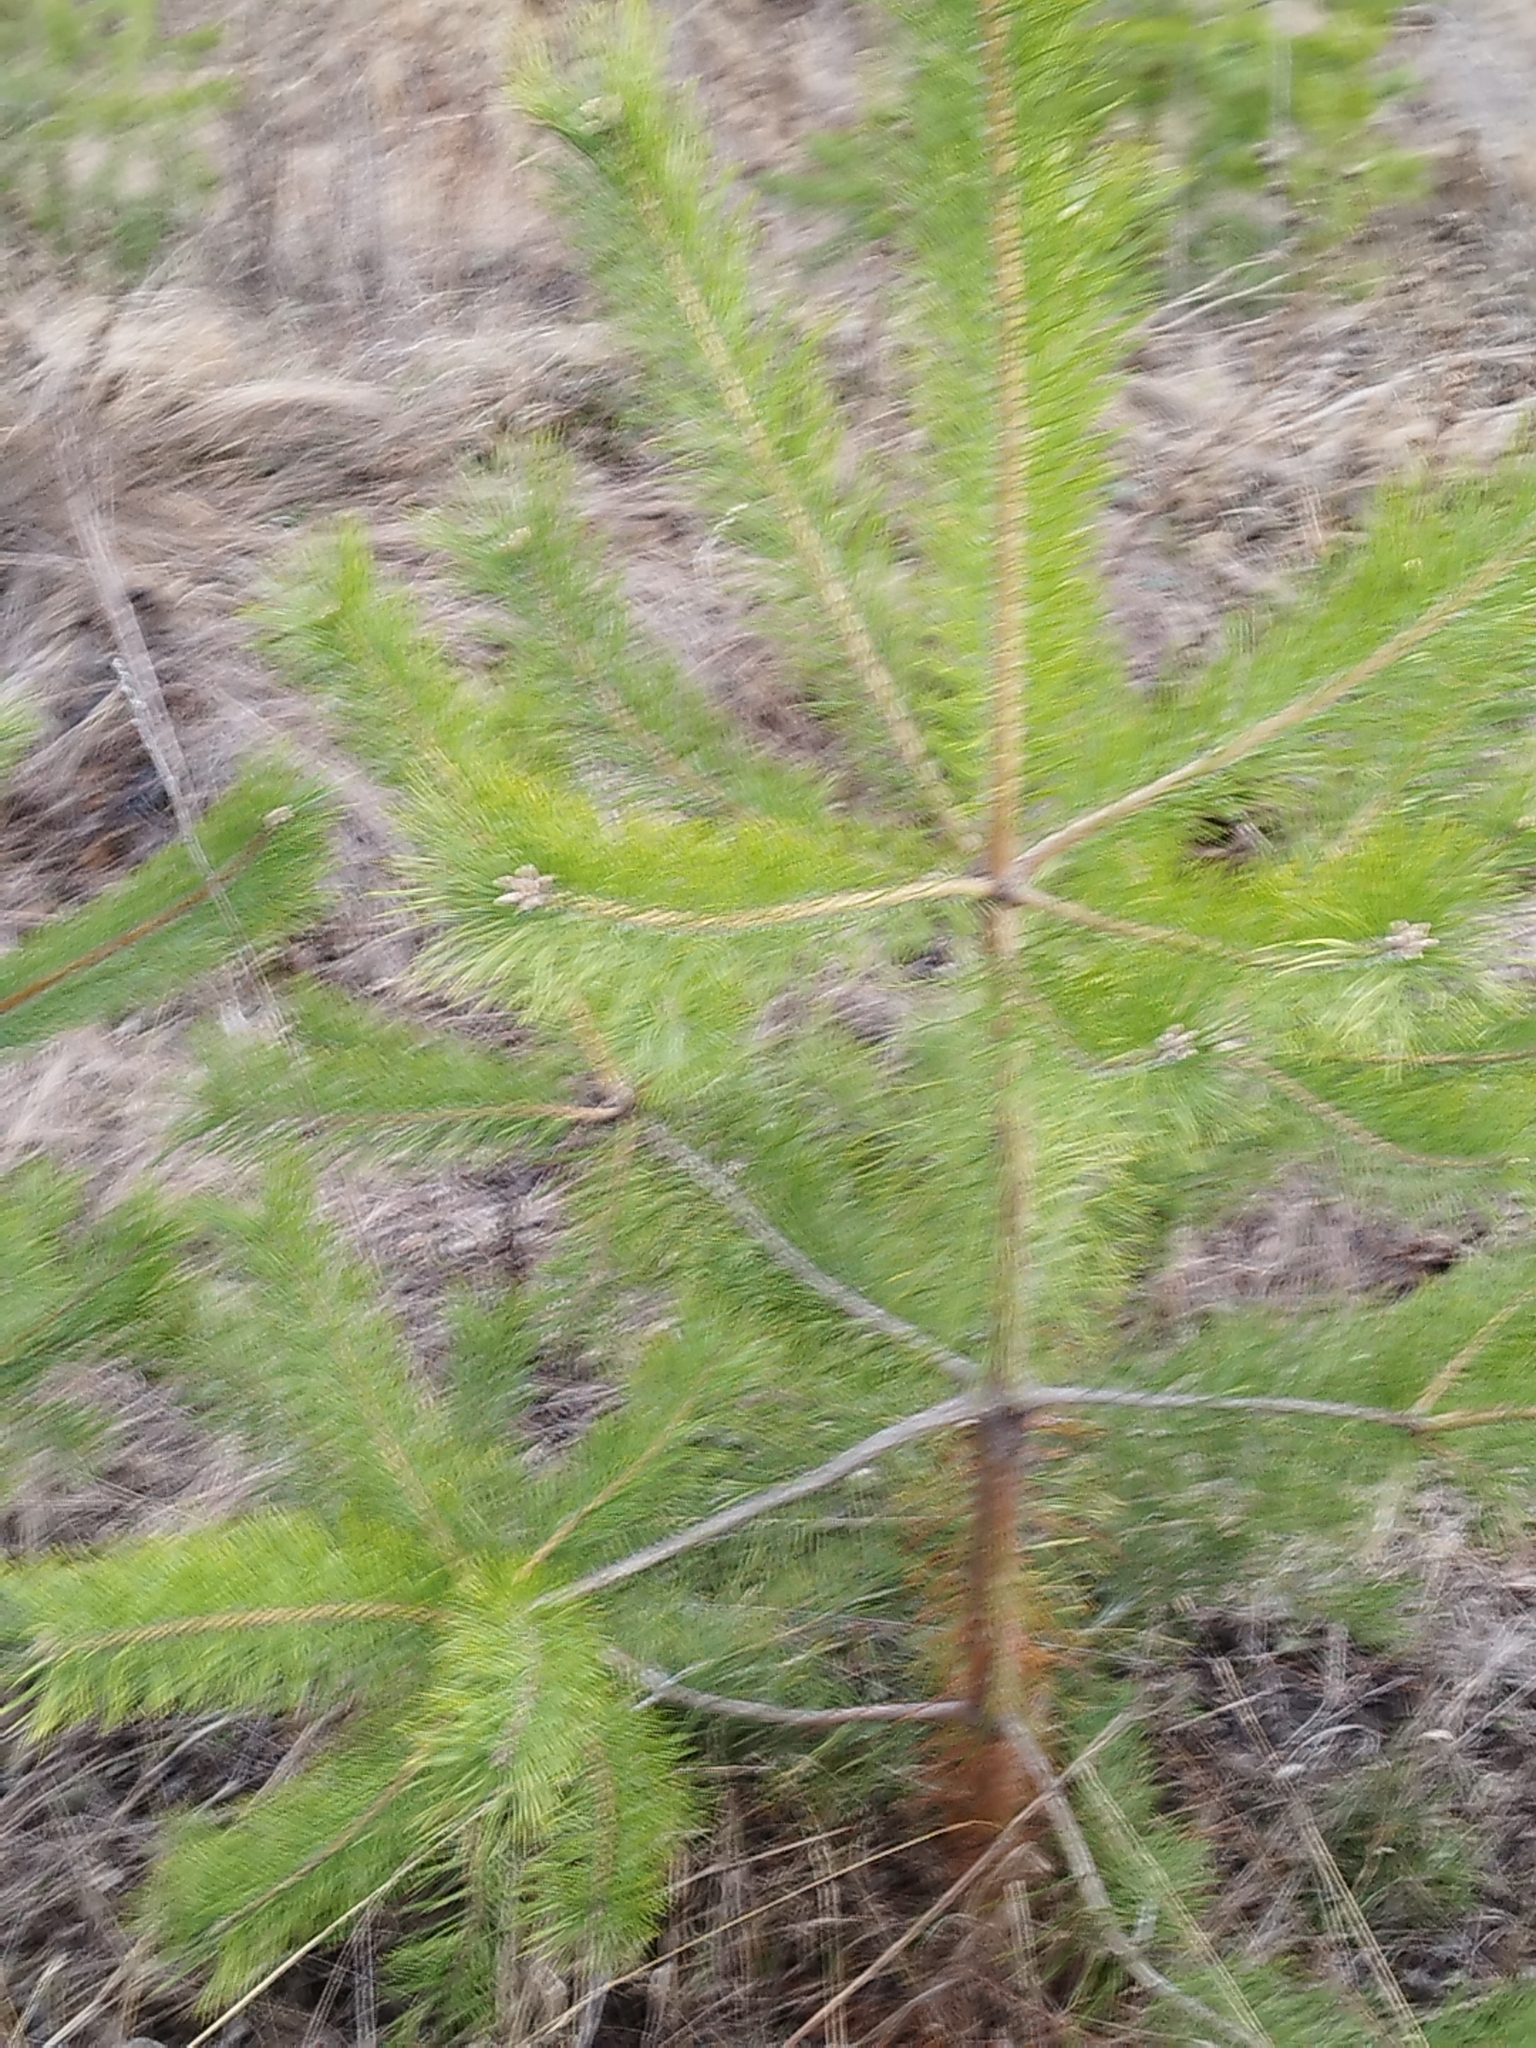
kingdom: Plantae
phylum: Tracheophyta
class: Pinopsida
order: Pinales
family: Pinaceae
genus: Pinus
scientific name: Pinus sylvestris
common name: Scots pine
